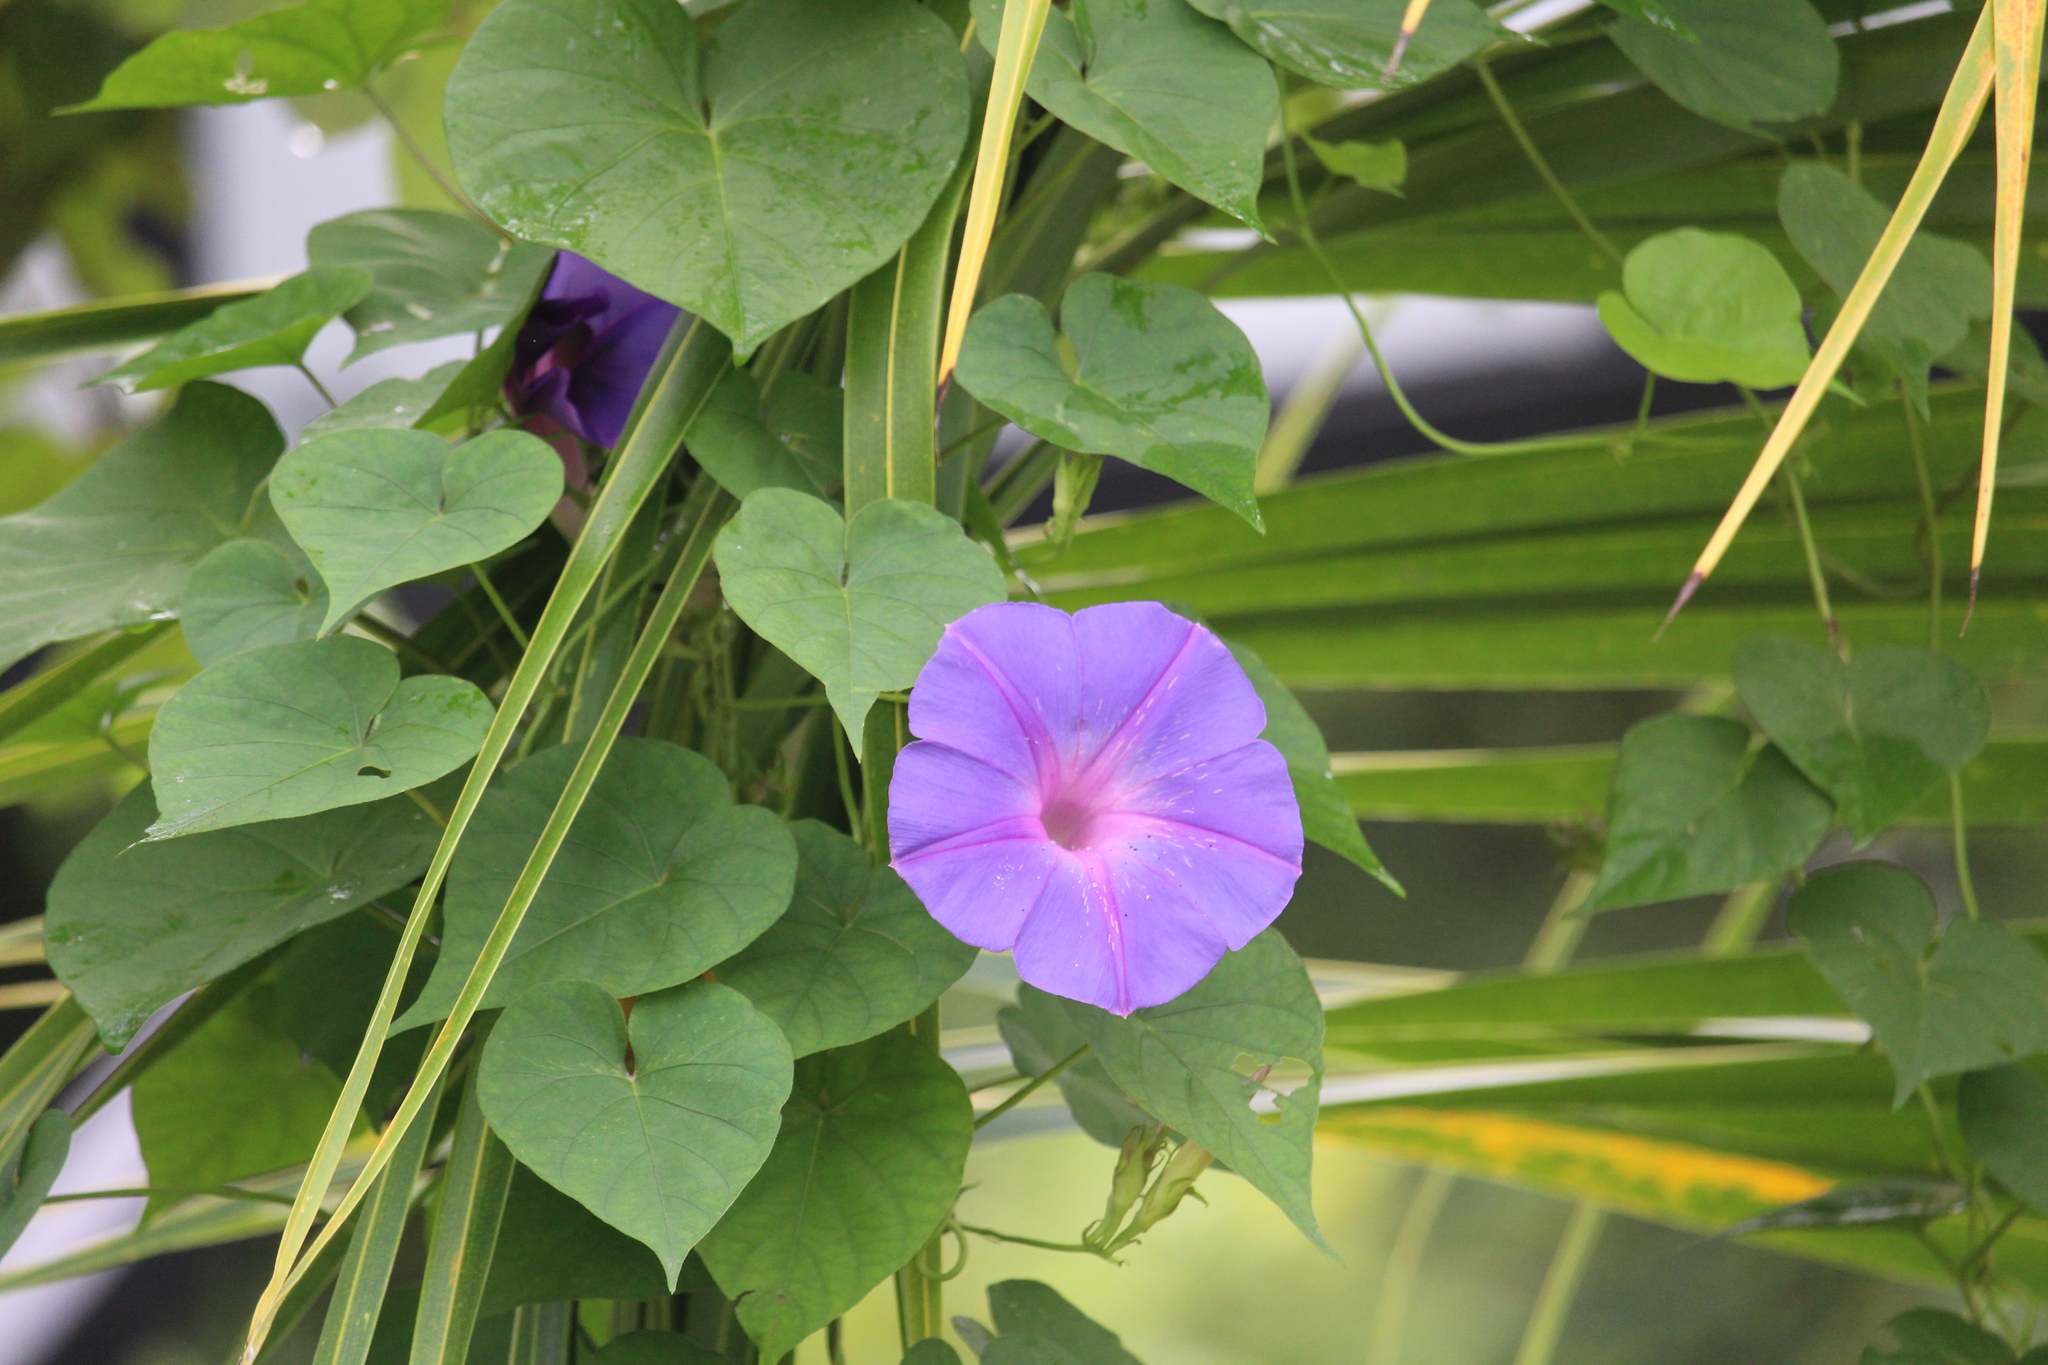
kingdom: Plantae
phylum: Tracheophyta
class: Magnoliopsida
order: Solanales
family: Convolvulaceae
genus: Ipomoea
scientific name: Ipomoea indica
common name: Blue dawnflower
